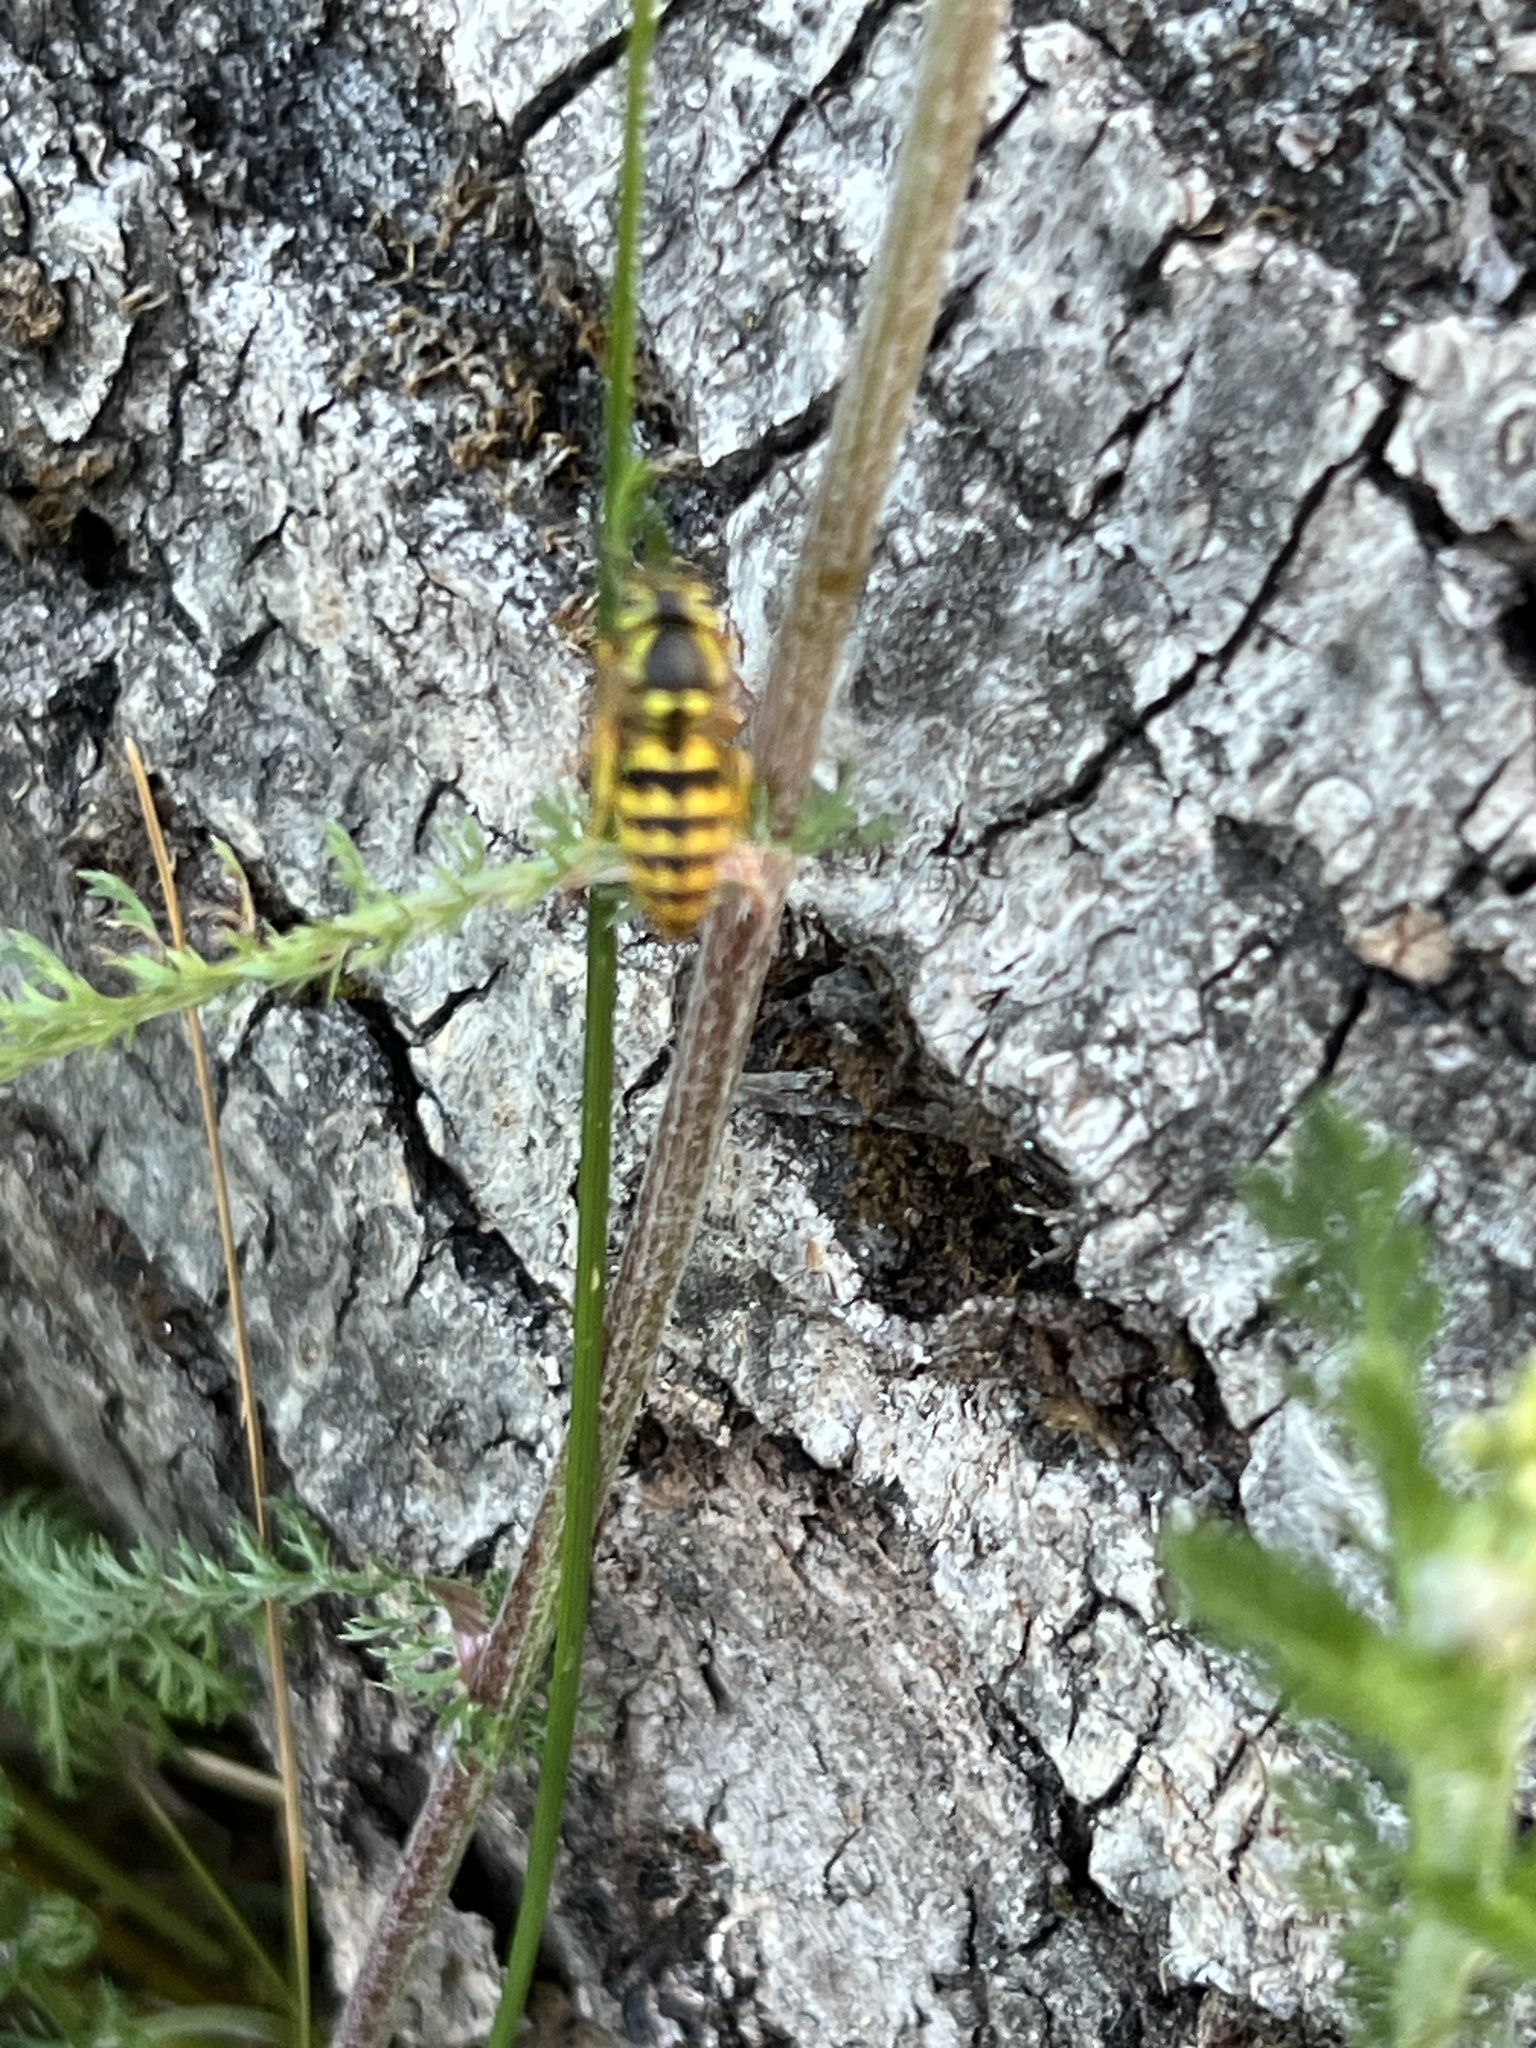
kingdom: Animalia
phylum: Arthropoda
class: Insecta
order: Hymenoptera
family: Vespidae
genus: Vespula
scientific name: Vespula pensylvanica
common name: Western yellowjacket
